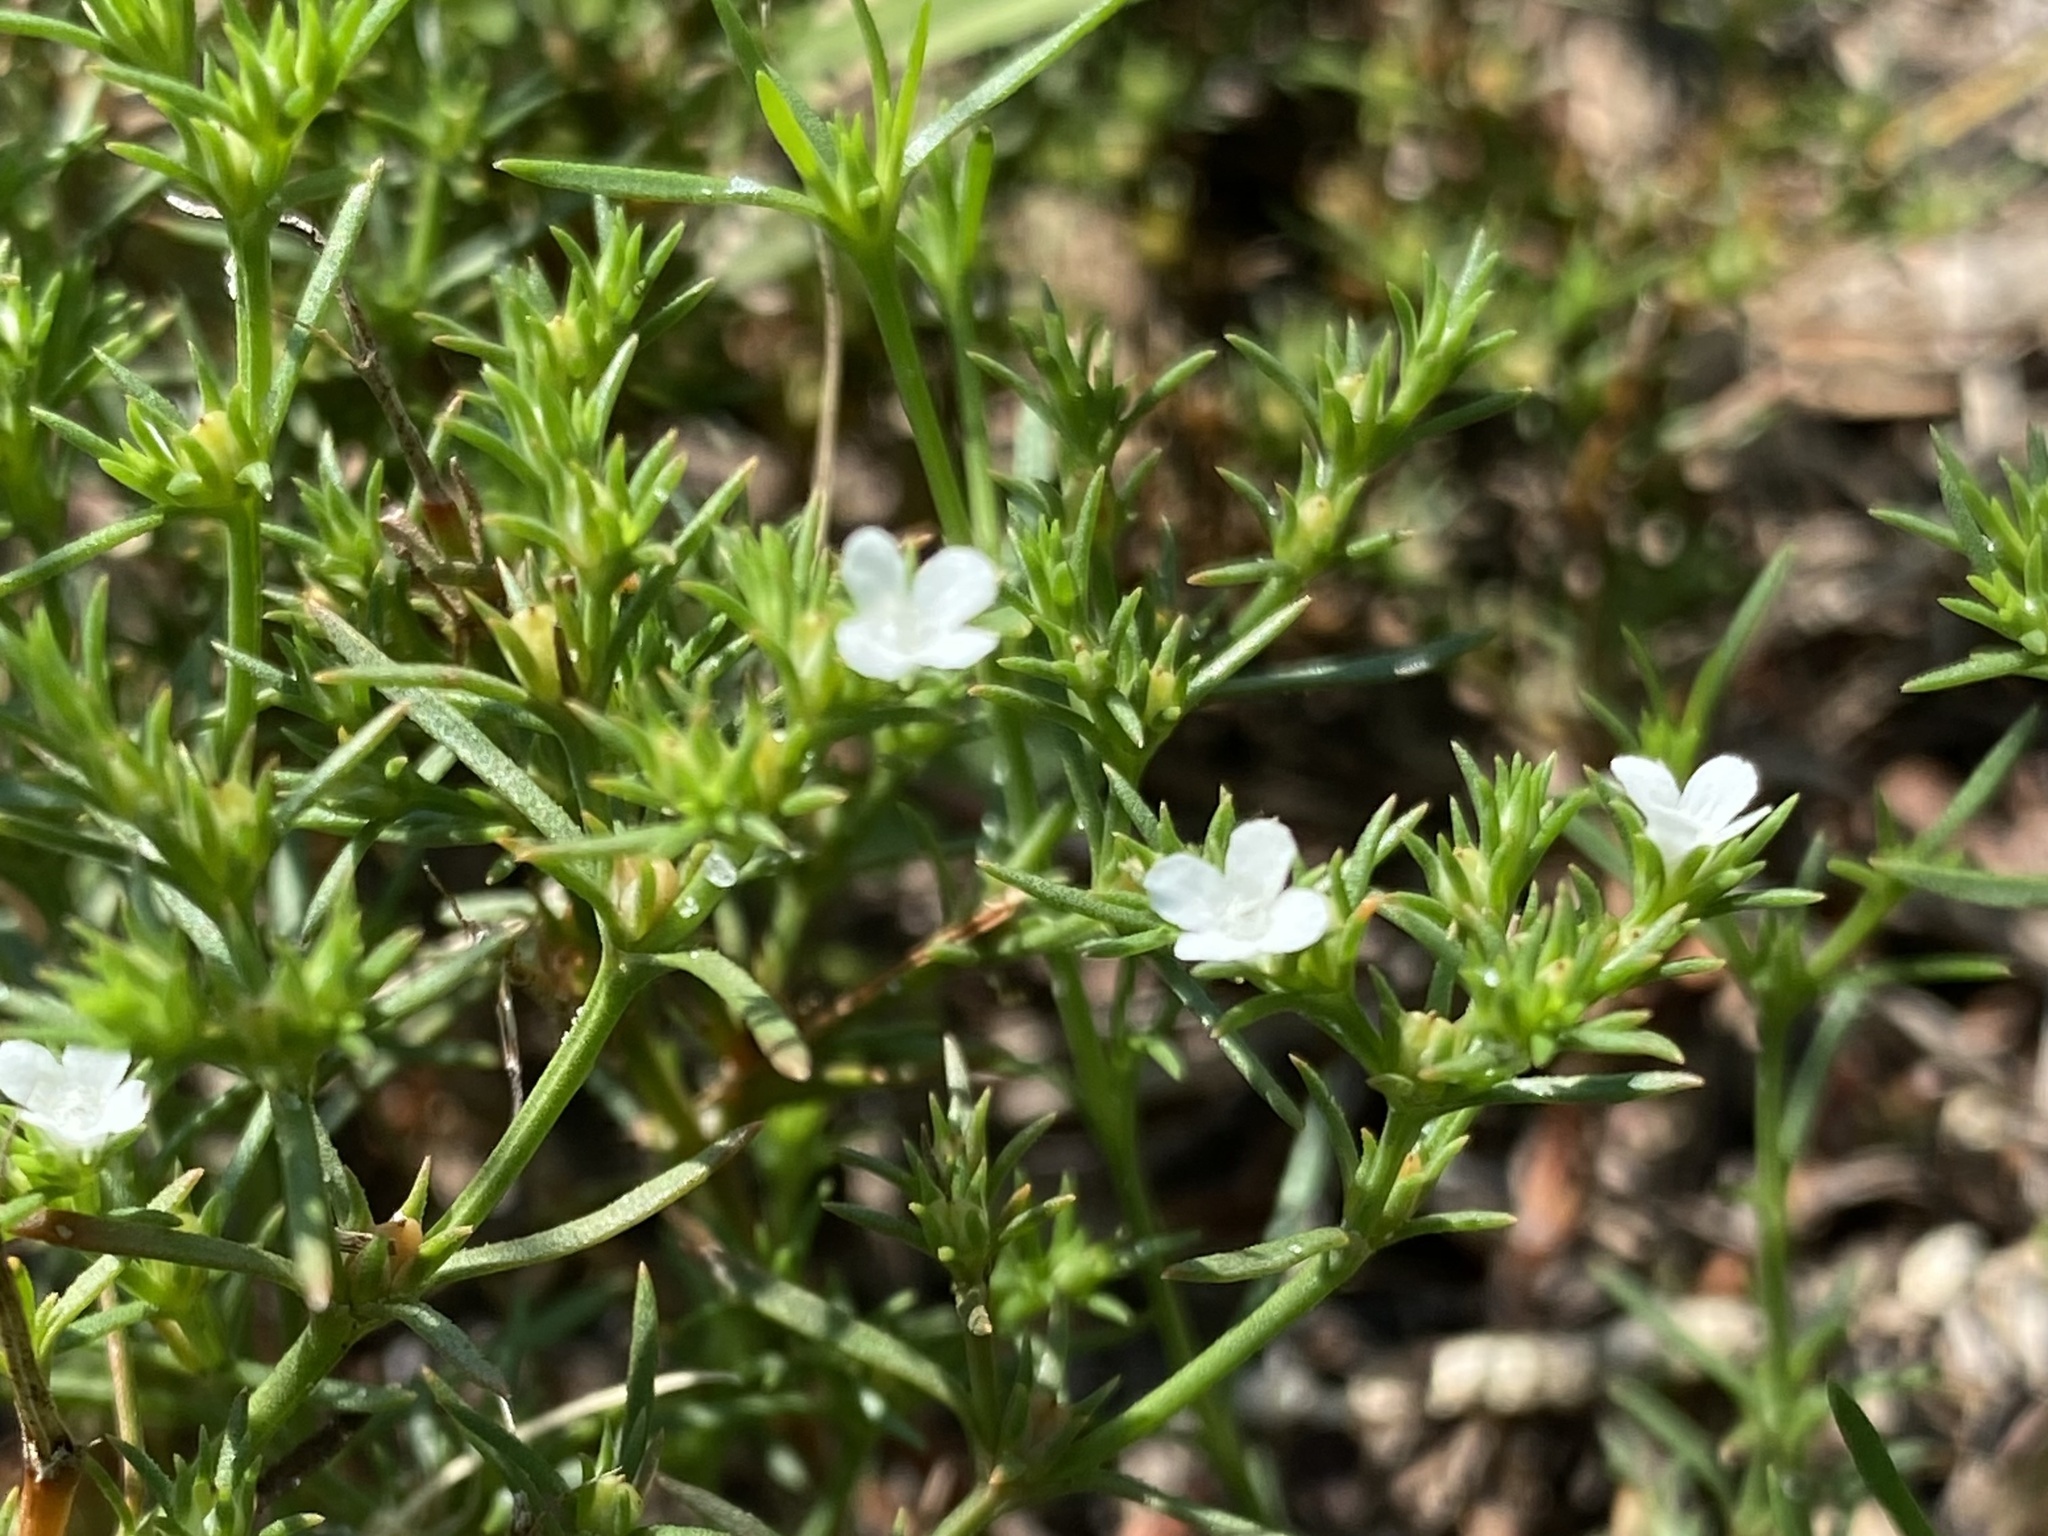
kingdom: Plantae
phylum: Tracheophyta
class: Magnoliopsida
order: Lamiales
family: Tetrachondraceae
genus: Polypremum
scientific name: Polypremum procumbens
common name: Juniper-leaf
